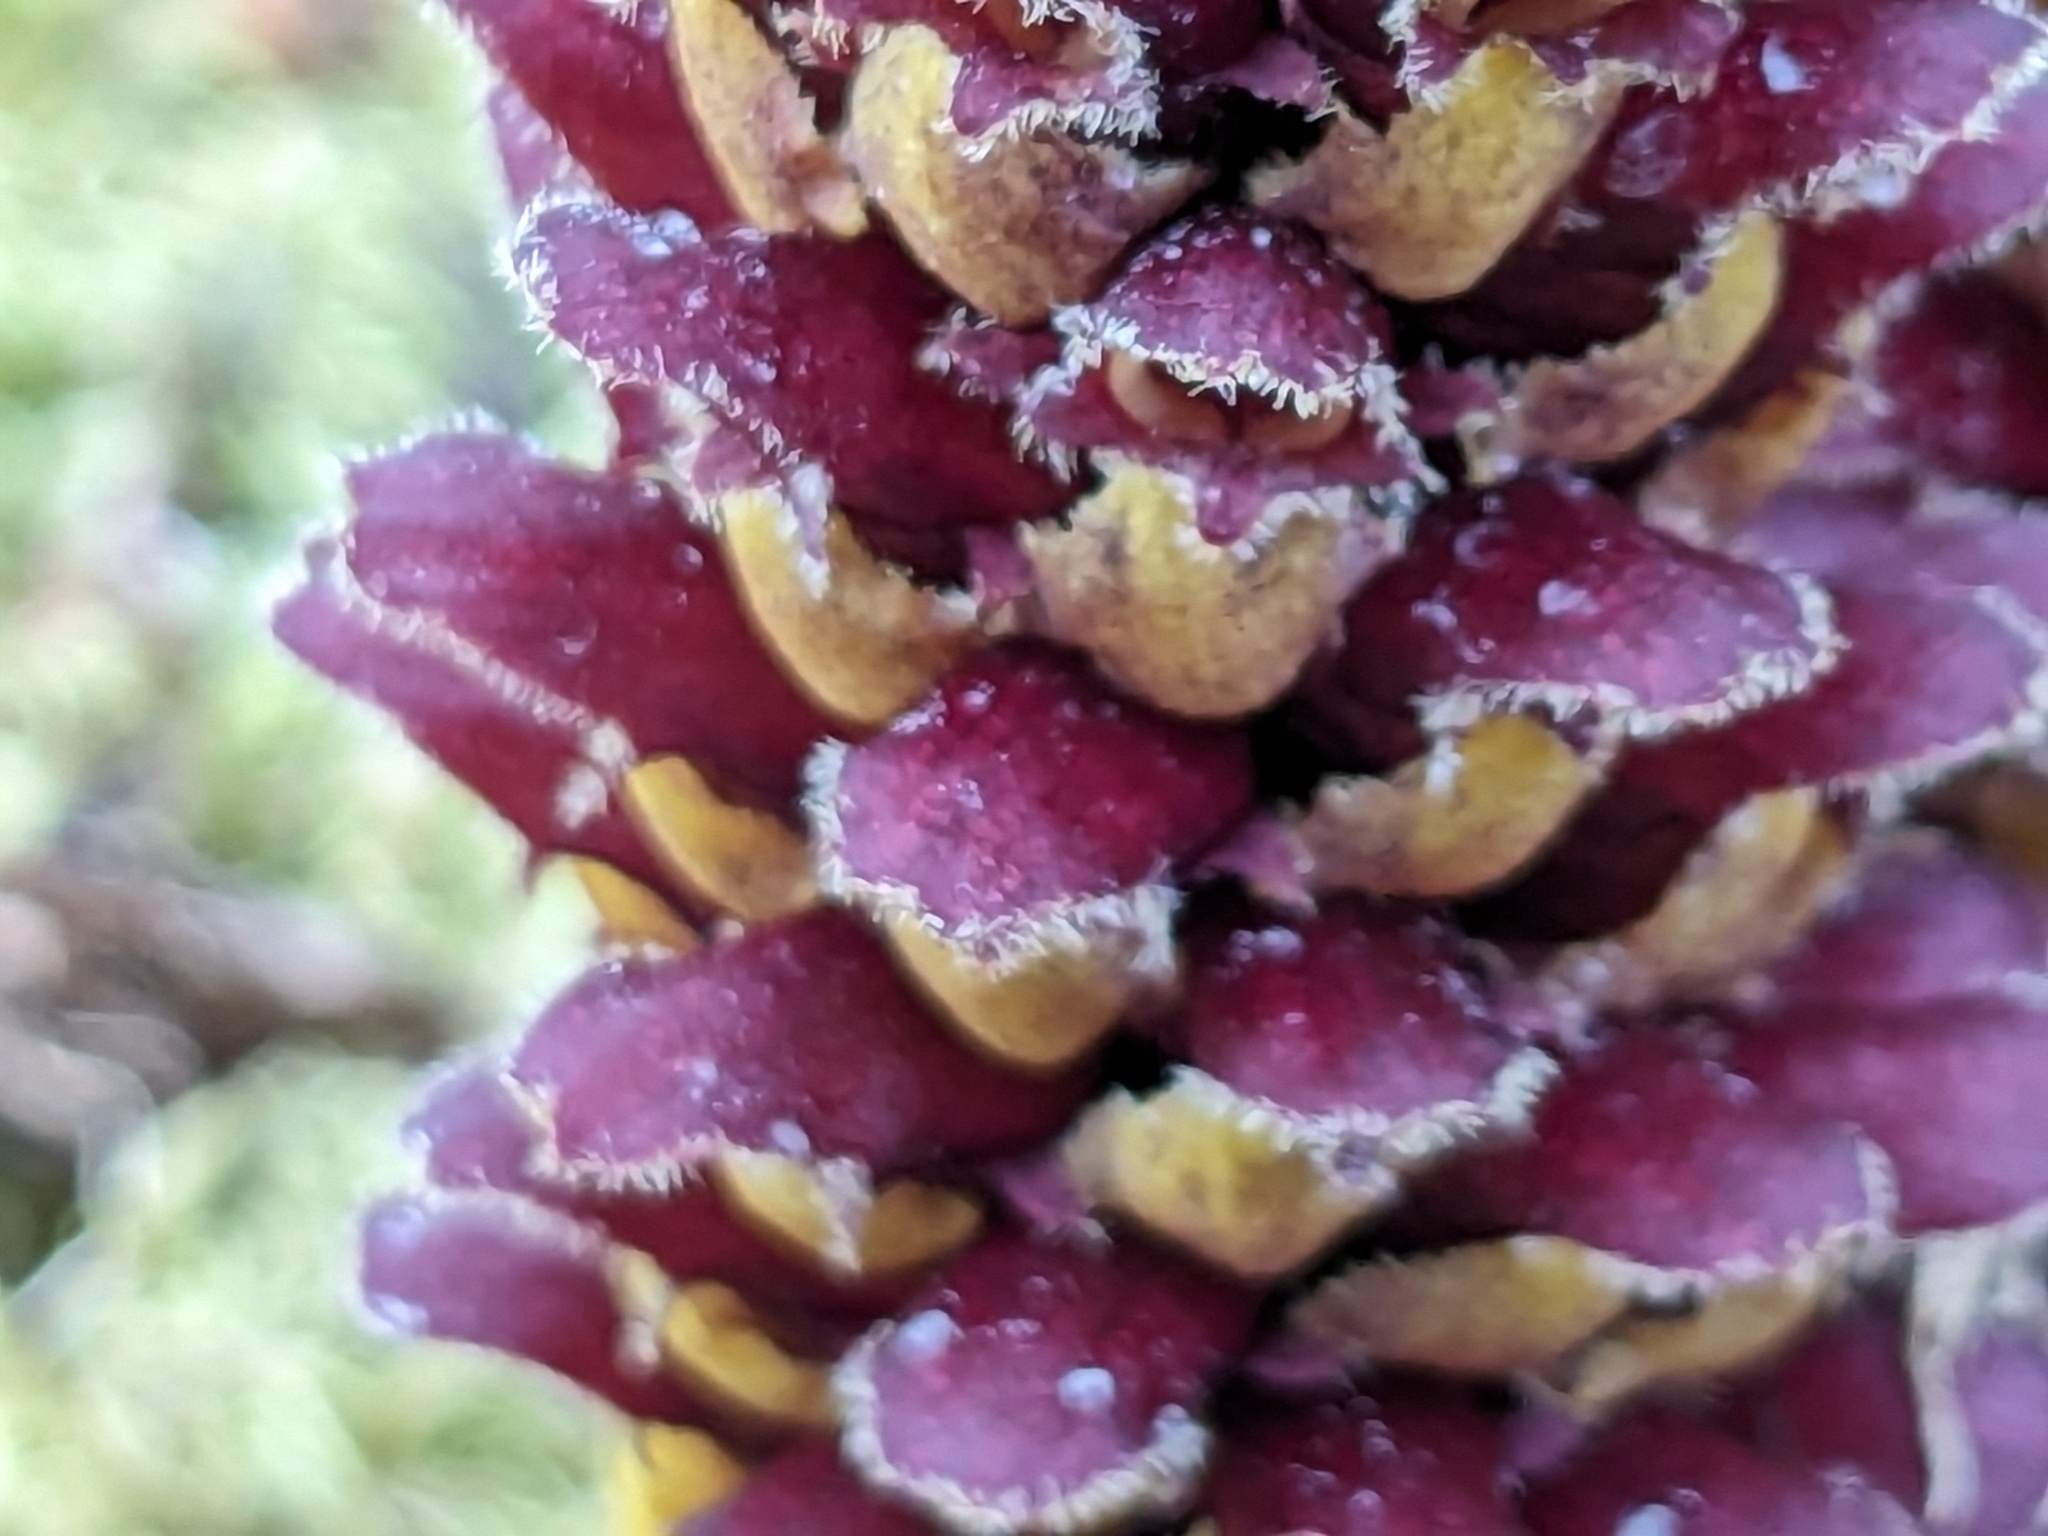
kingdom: Plantae
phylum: Tracheophyta
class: Magnoliopsida
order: Lamiales
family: Orobanchaceae
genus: Boschniakia
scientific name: Boschniakia rossica
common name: Poque
